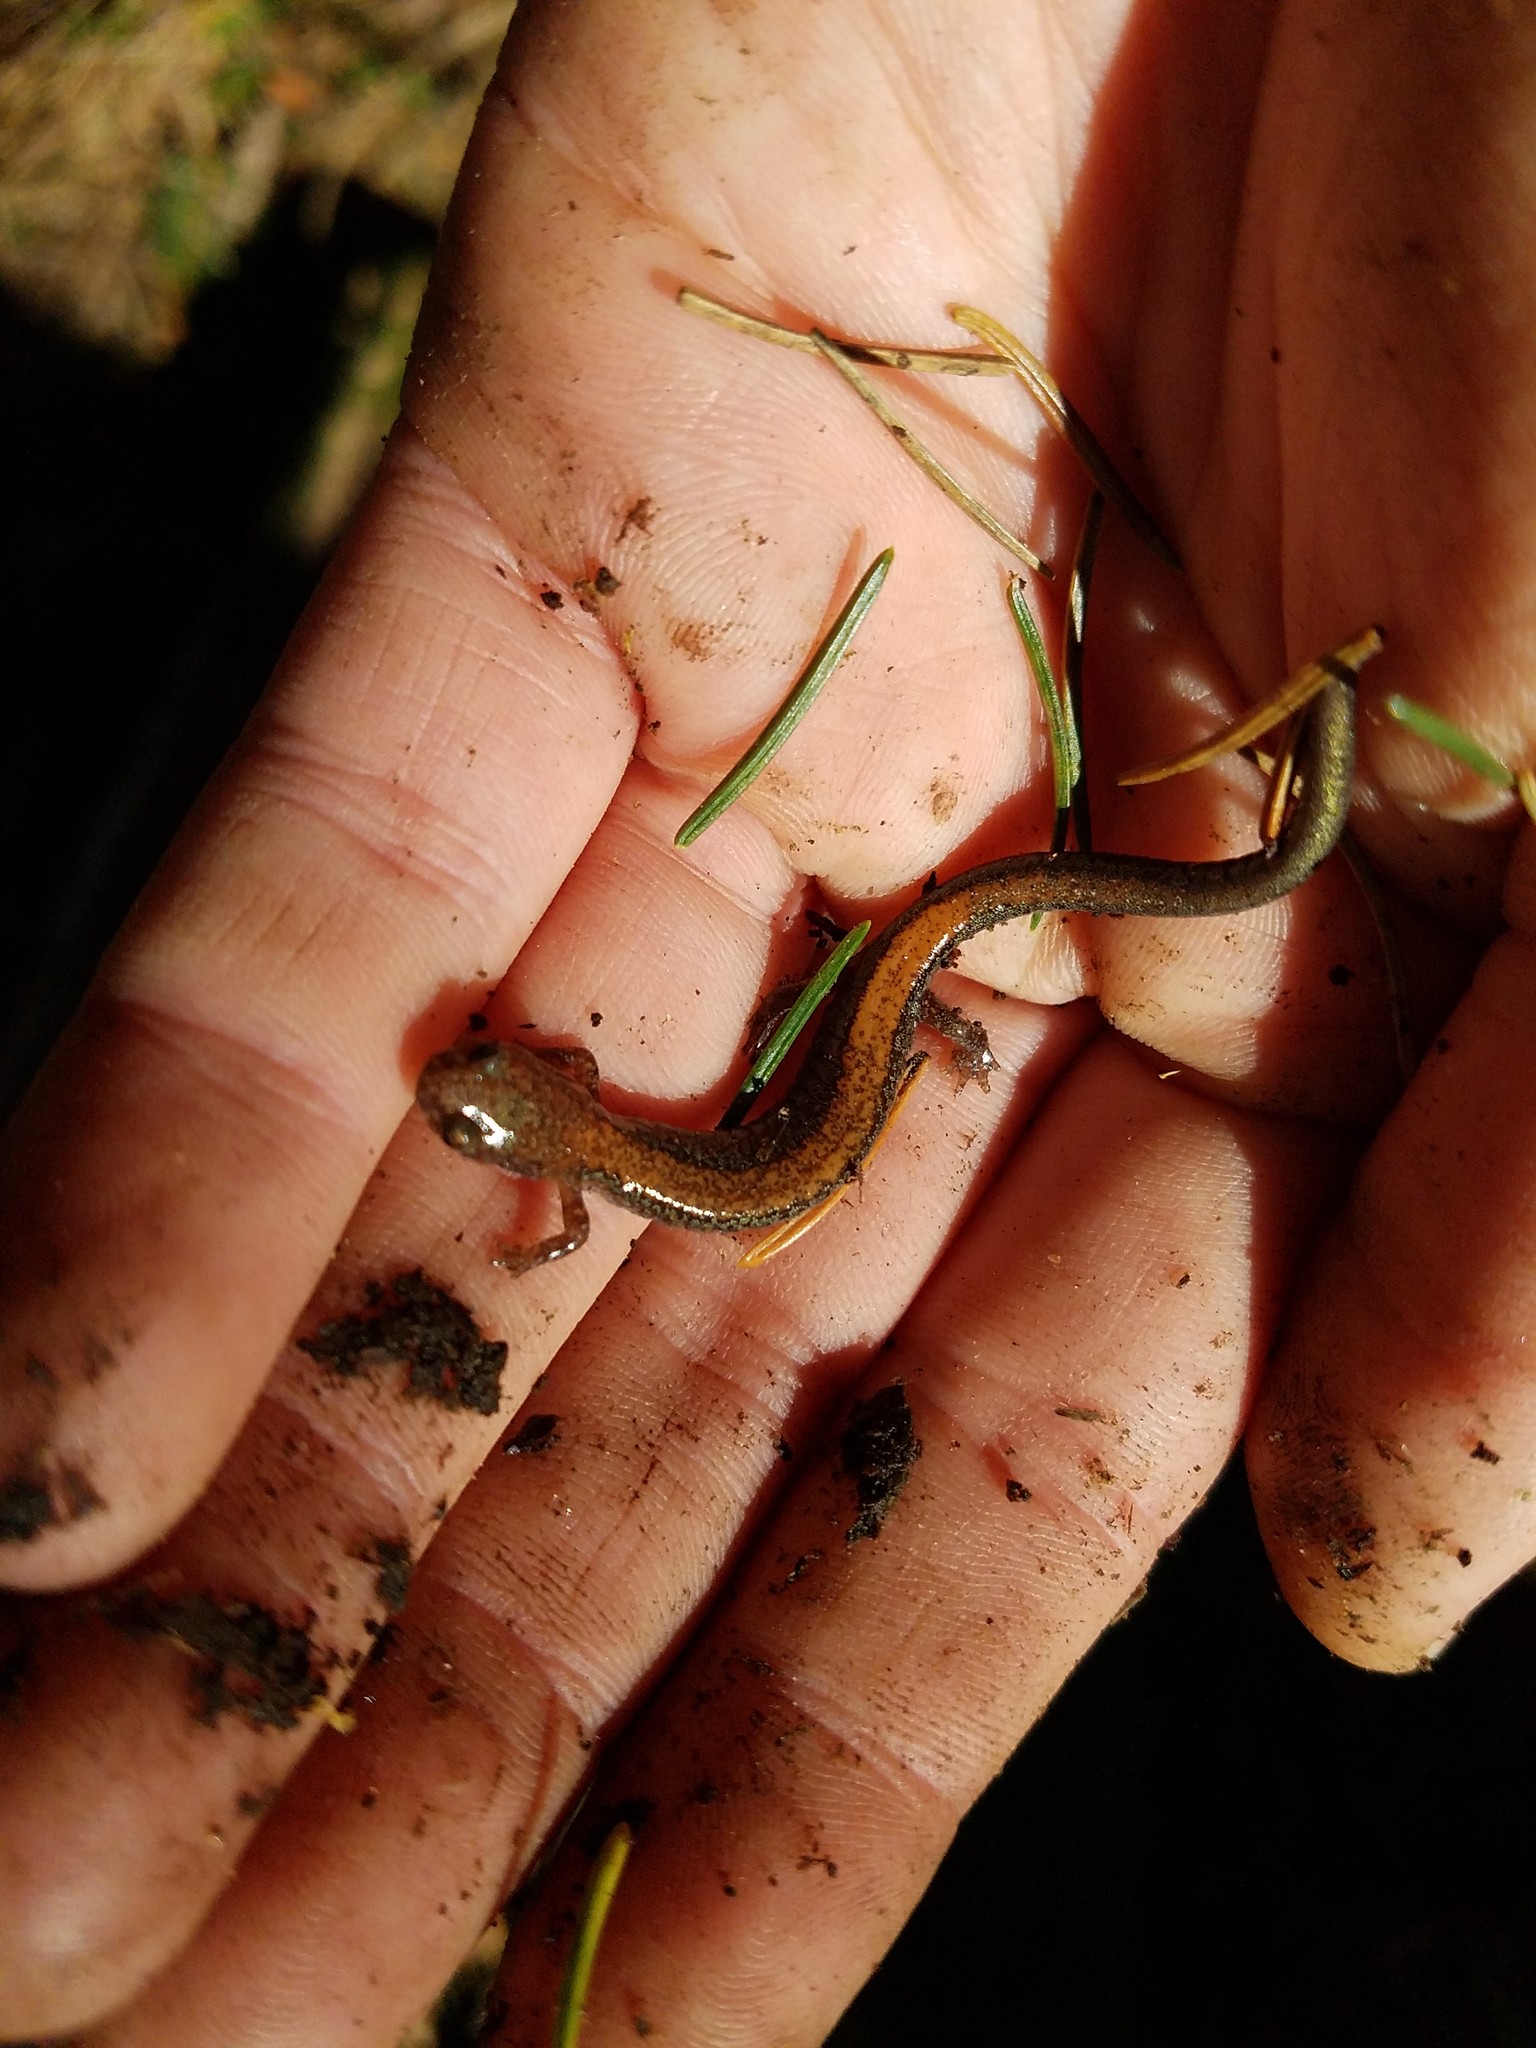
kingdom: Animalia
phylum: Chordata
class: Amphibia
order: Caudata
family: Plethodontidae
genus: Plethodon
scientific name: Plethodon cinereus
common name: Redback salamander
